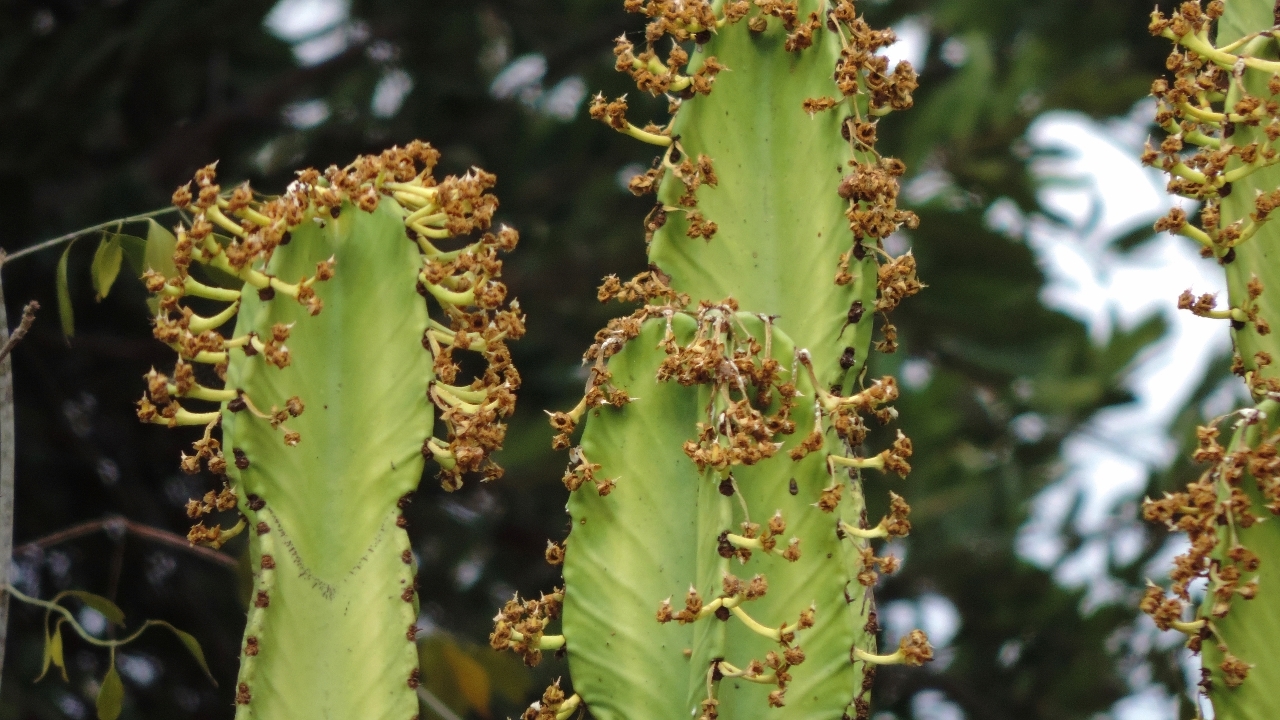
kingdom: Plantae
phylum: Tracheophyta
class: Magnoliopsida
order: Malpighiales
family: Euphorbiaceae
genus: Euphorbia
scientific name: Euphorbia ingens
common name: Cactus spurge
